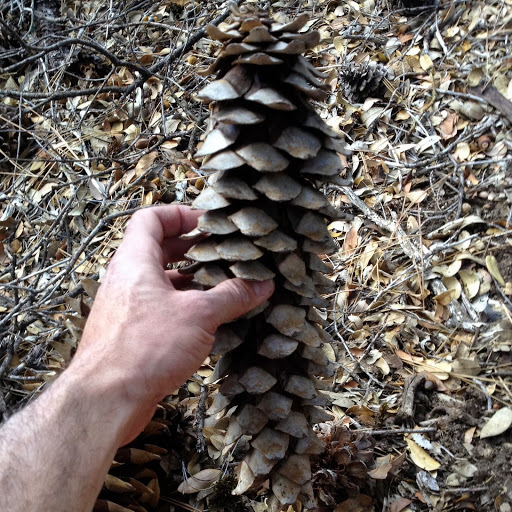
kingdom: Plantae
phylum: Tracheophyta
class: Pinopsida
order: Pinales
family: Pinaceae
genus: Pinus
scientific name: Pinus lambertiana
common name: Sugar pine
